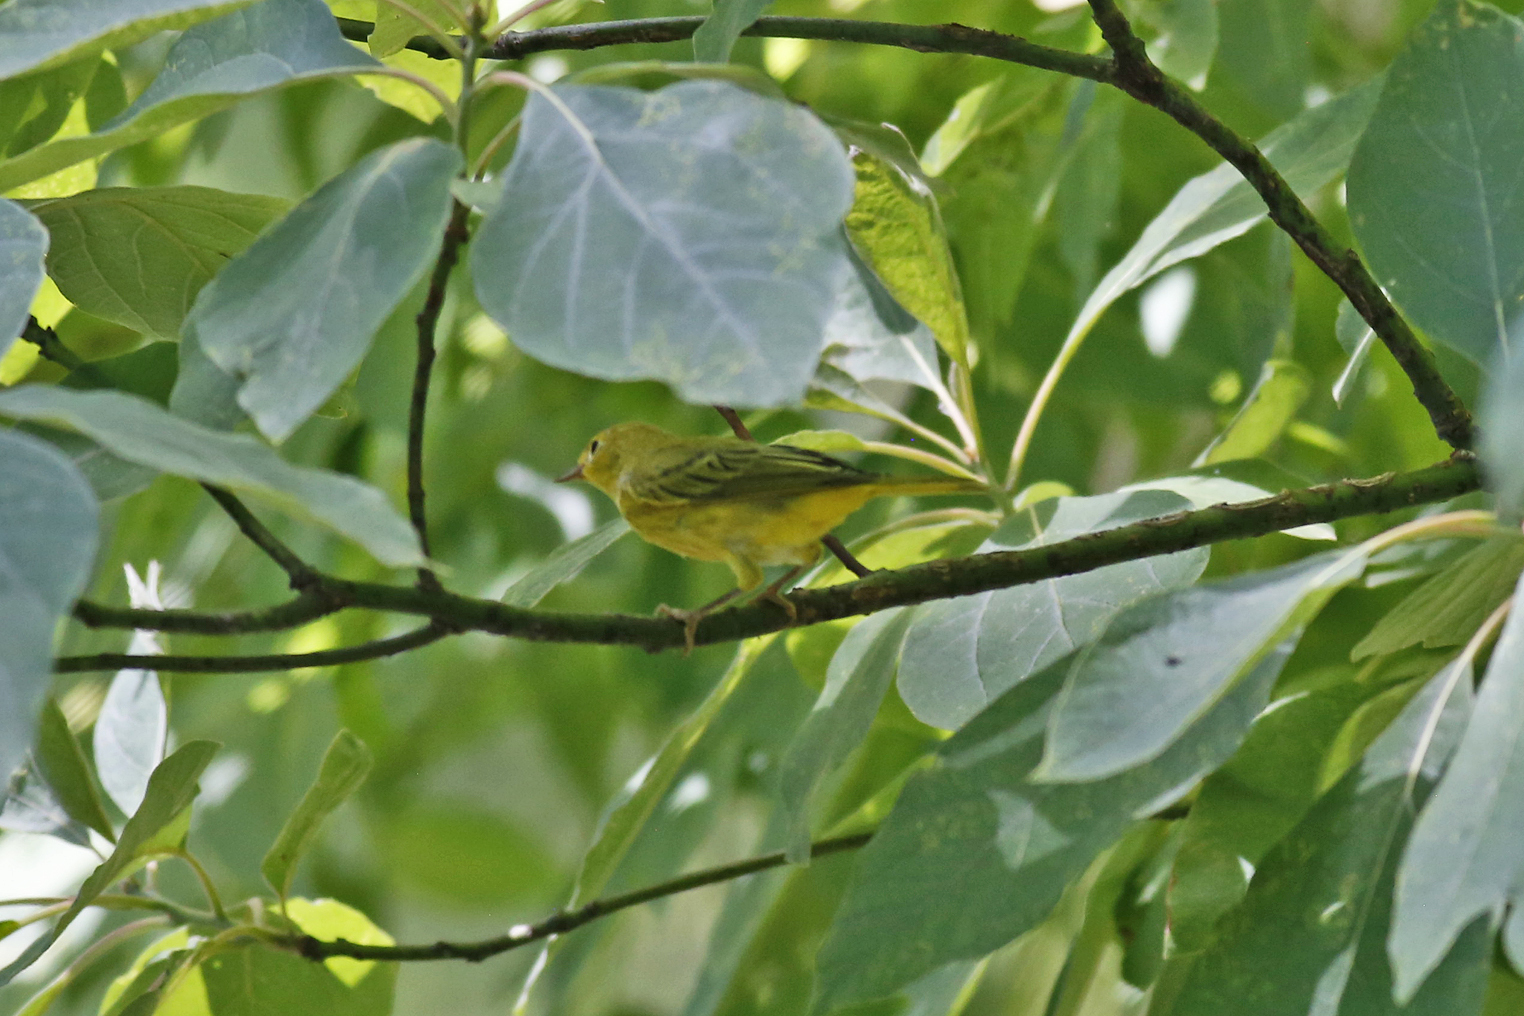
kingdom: Animalia
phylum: Chordata
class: Aves
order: Passeriformes
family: Parulidae
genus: Setophaga
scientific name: Setophaga petechia
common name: Yellow warbler
